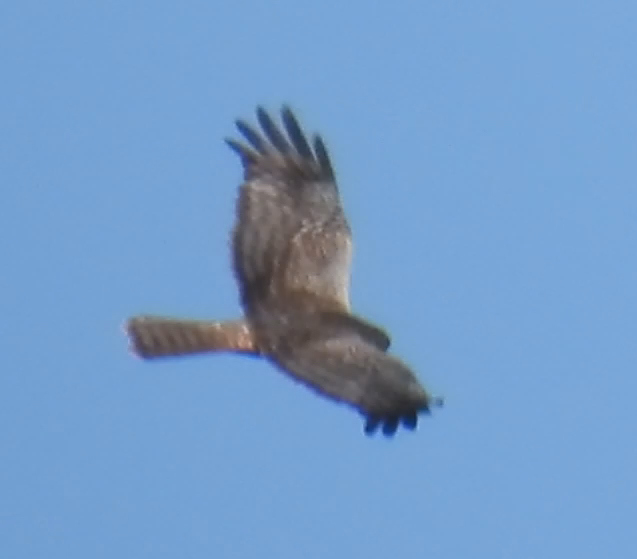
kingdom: Animalia
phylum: Chordata
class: Aves
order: Accipitriformes
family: Accipitridae
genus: Circus
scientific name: Circus ranivorus
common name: African marsh-harrier
